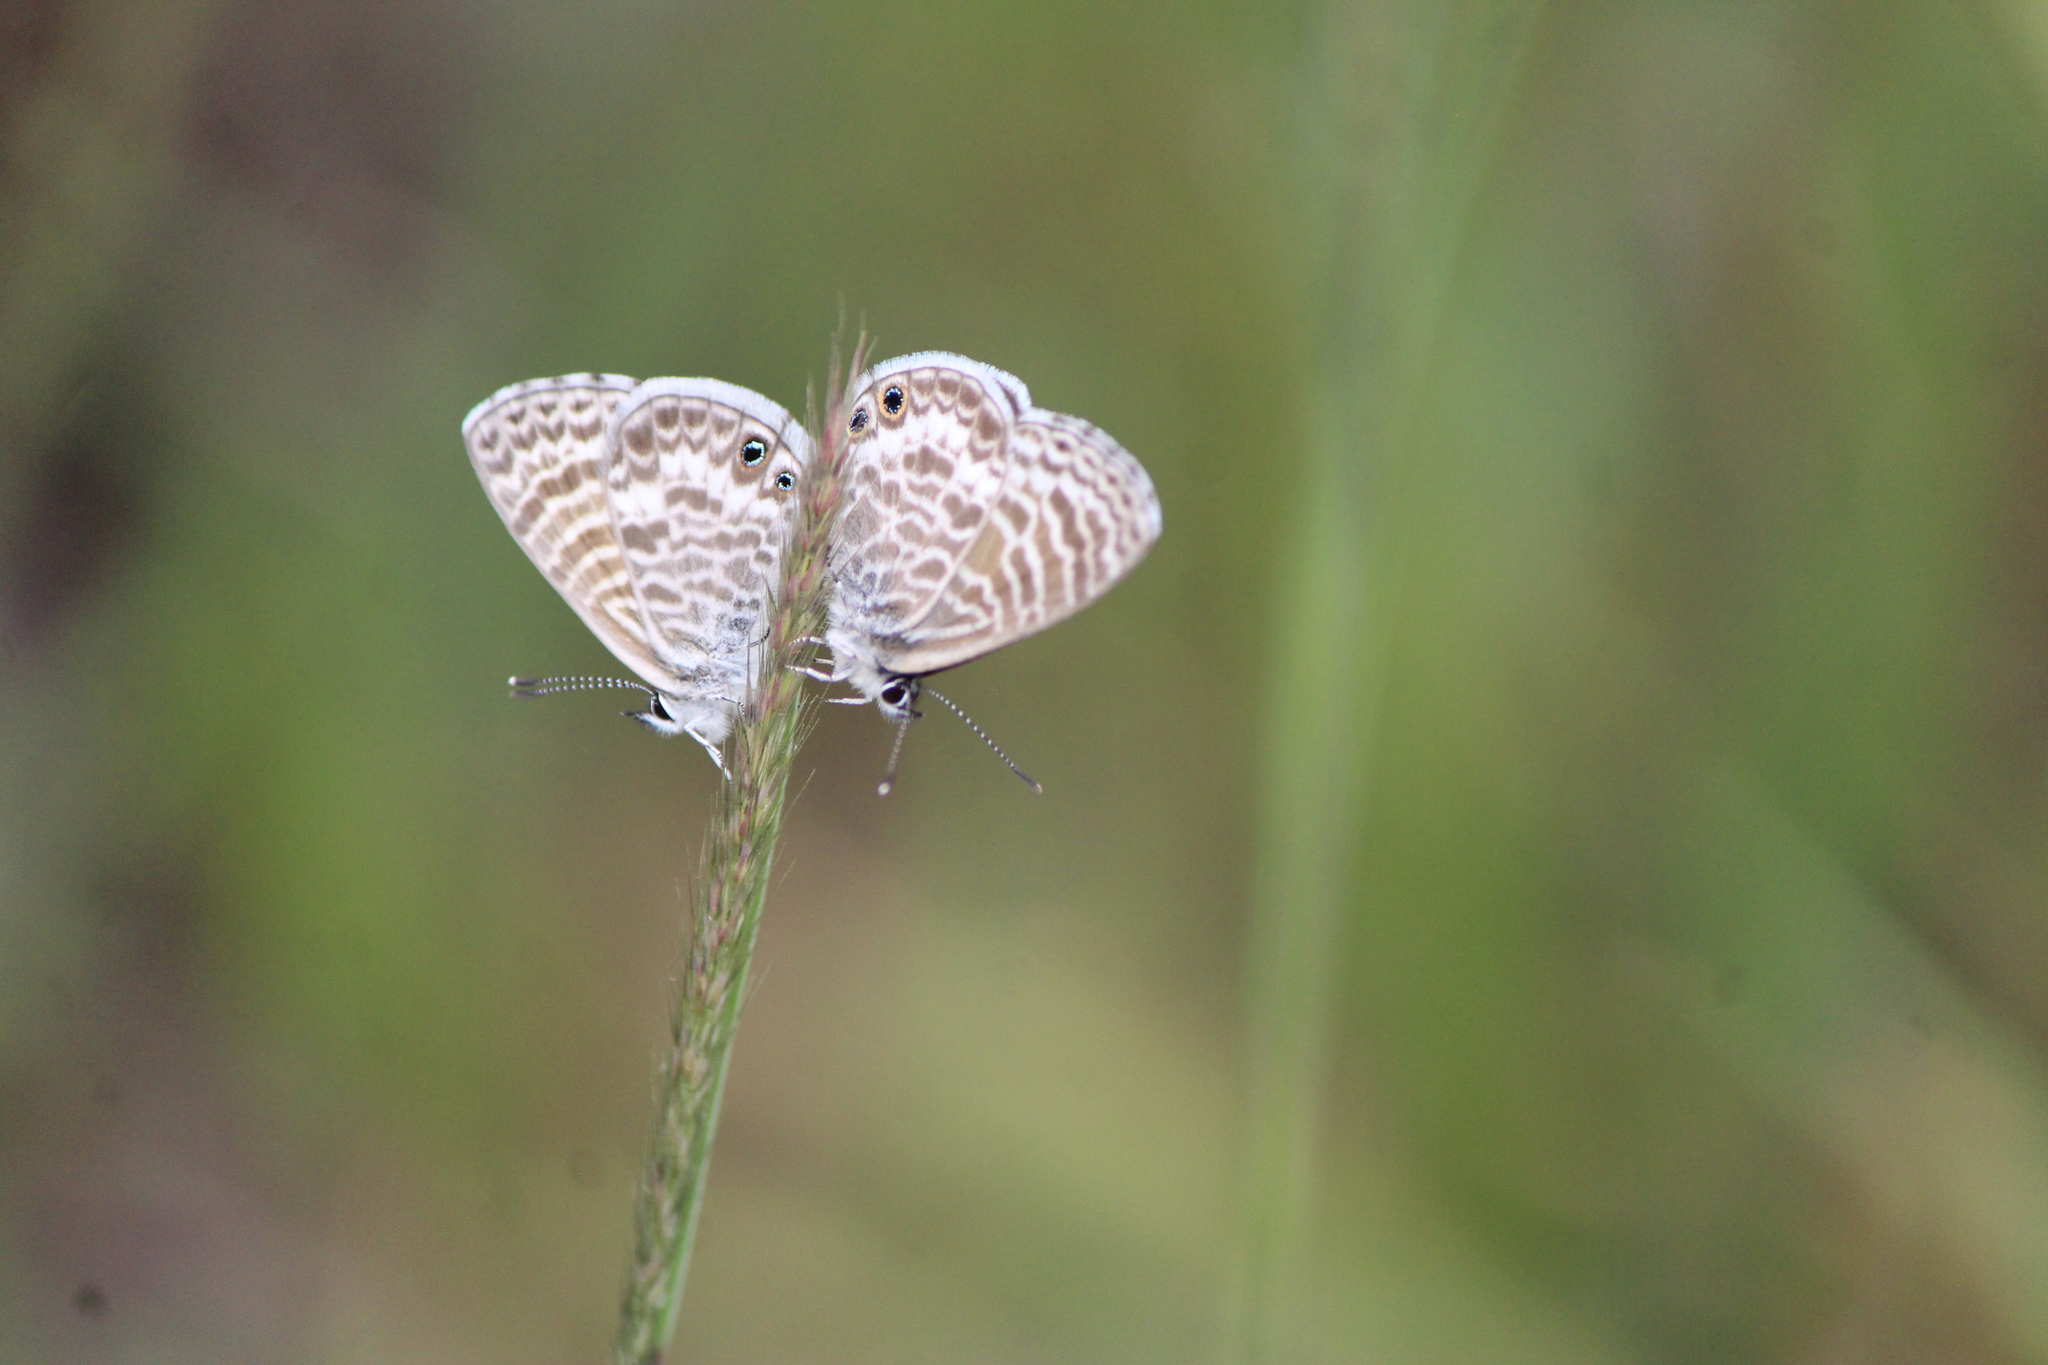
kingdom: Animalia
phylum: Arthropoda
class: Insecta
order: Lepidoptera
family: Lycaenidae
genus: Leptotes
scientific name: Leptotes marina
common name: Marine blue
